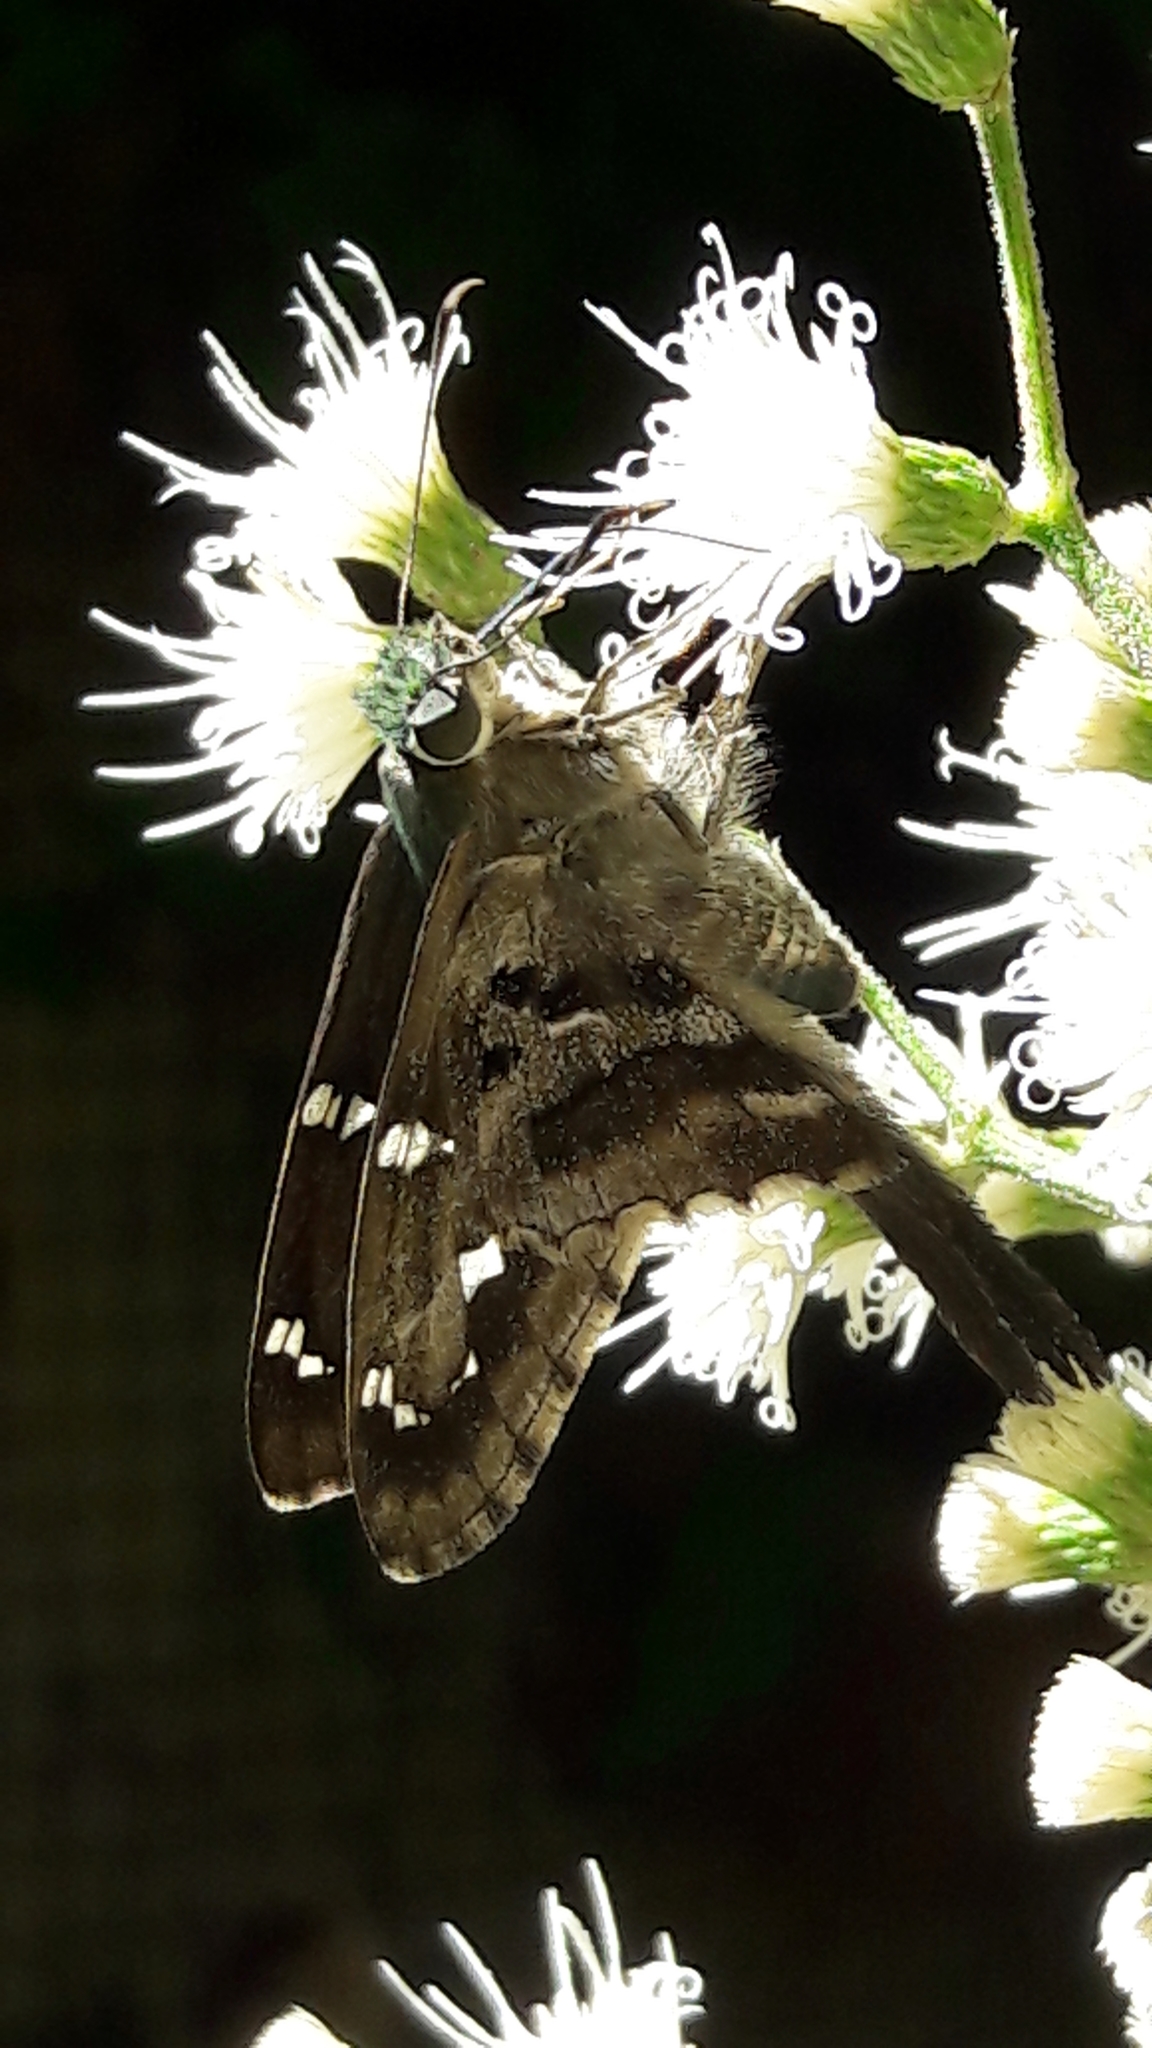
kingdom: Animalia
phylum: Arthropoda
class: Insecta
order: Lepidoptera
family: Hesperiidae
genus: Urbanus
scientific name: Urbanus proteus
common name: Long-tailed skipper
